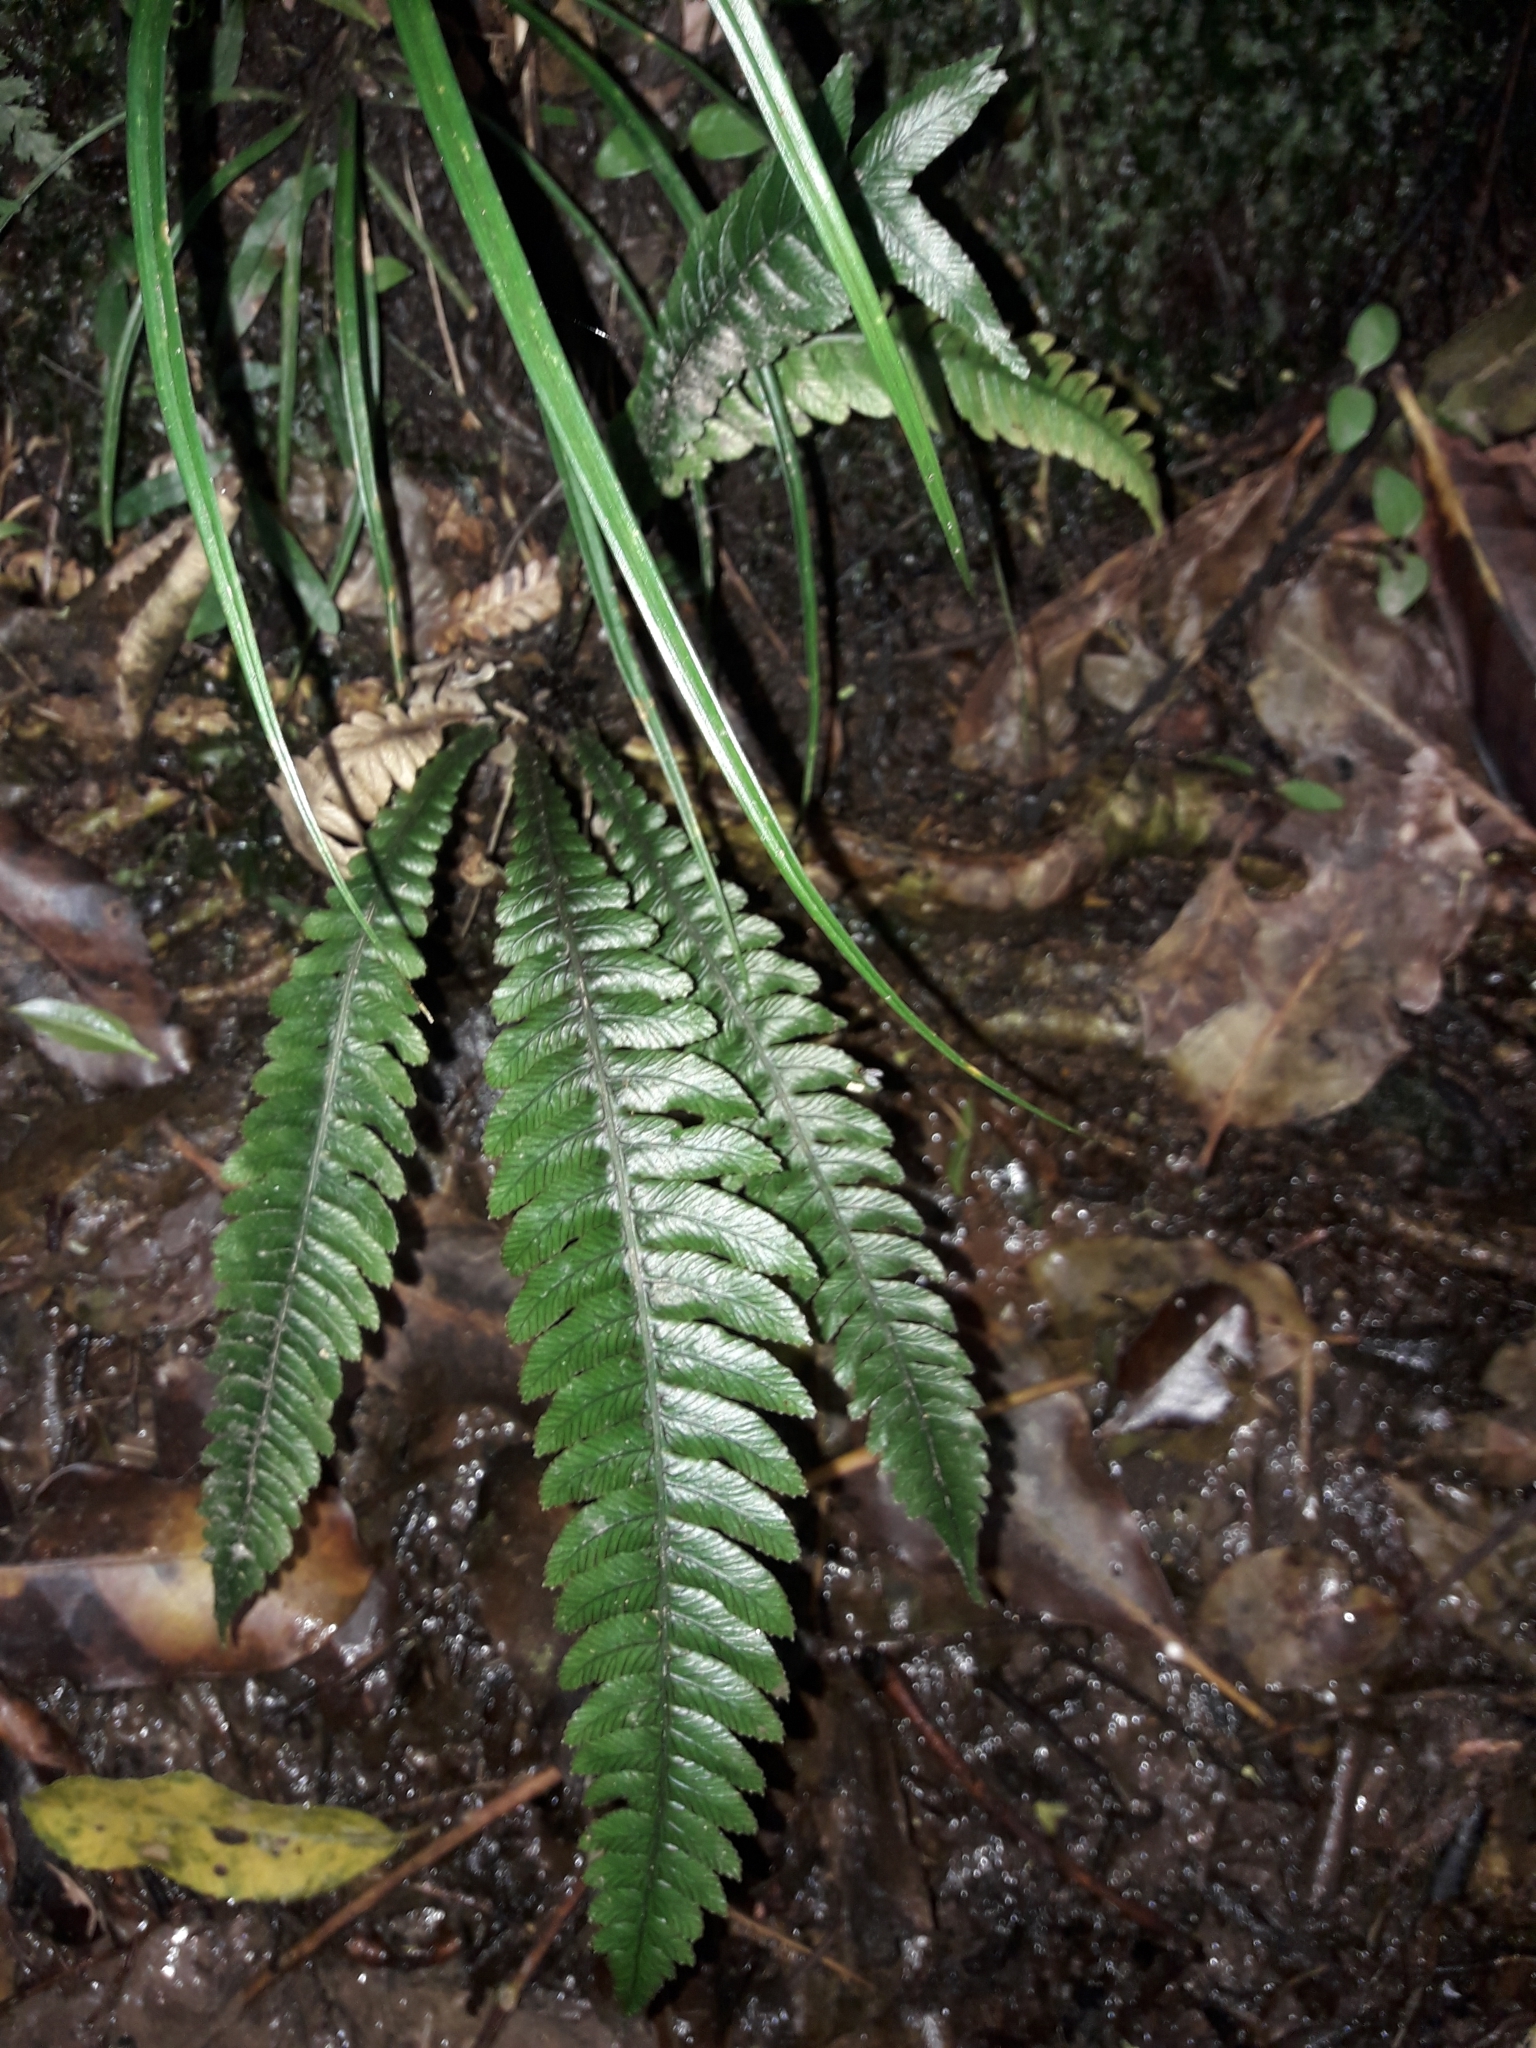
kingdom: Plantae
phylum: Tracheophyta
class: Polypodiopsida
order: Polypodiales
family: Blechnaceae
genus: Austroblechnum
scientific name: Austroblechnum lanceolatum
